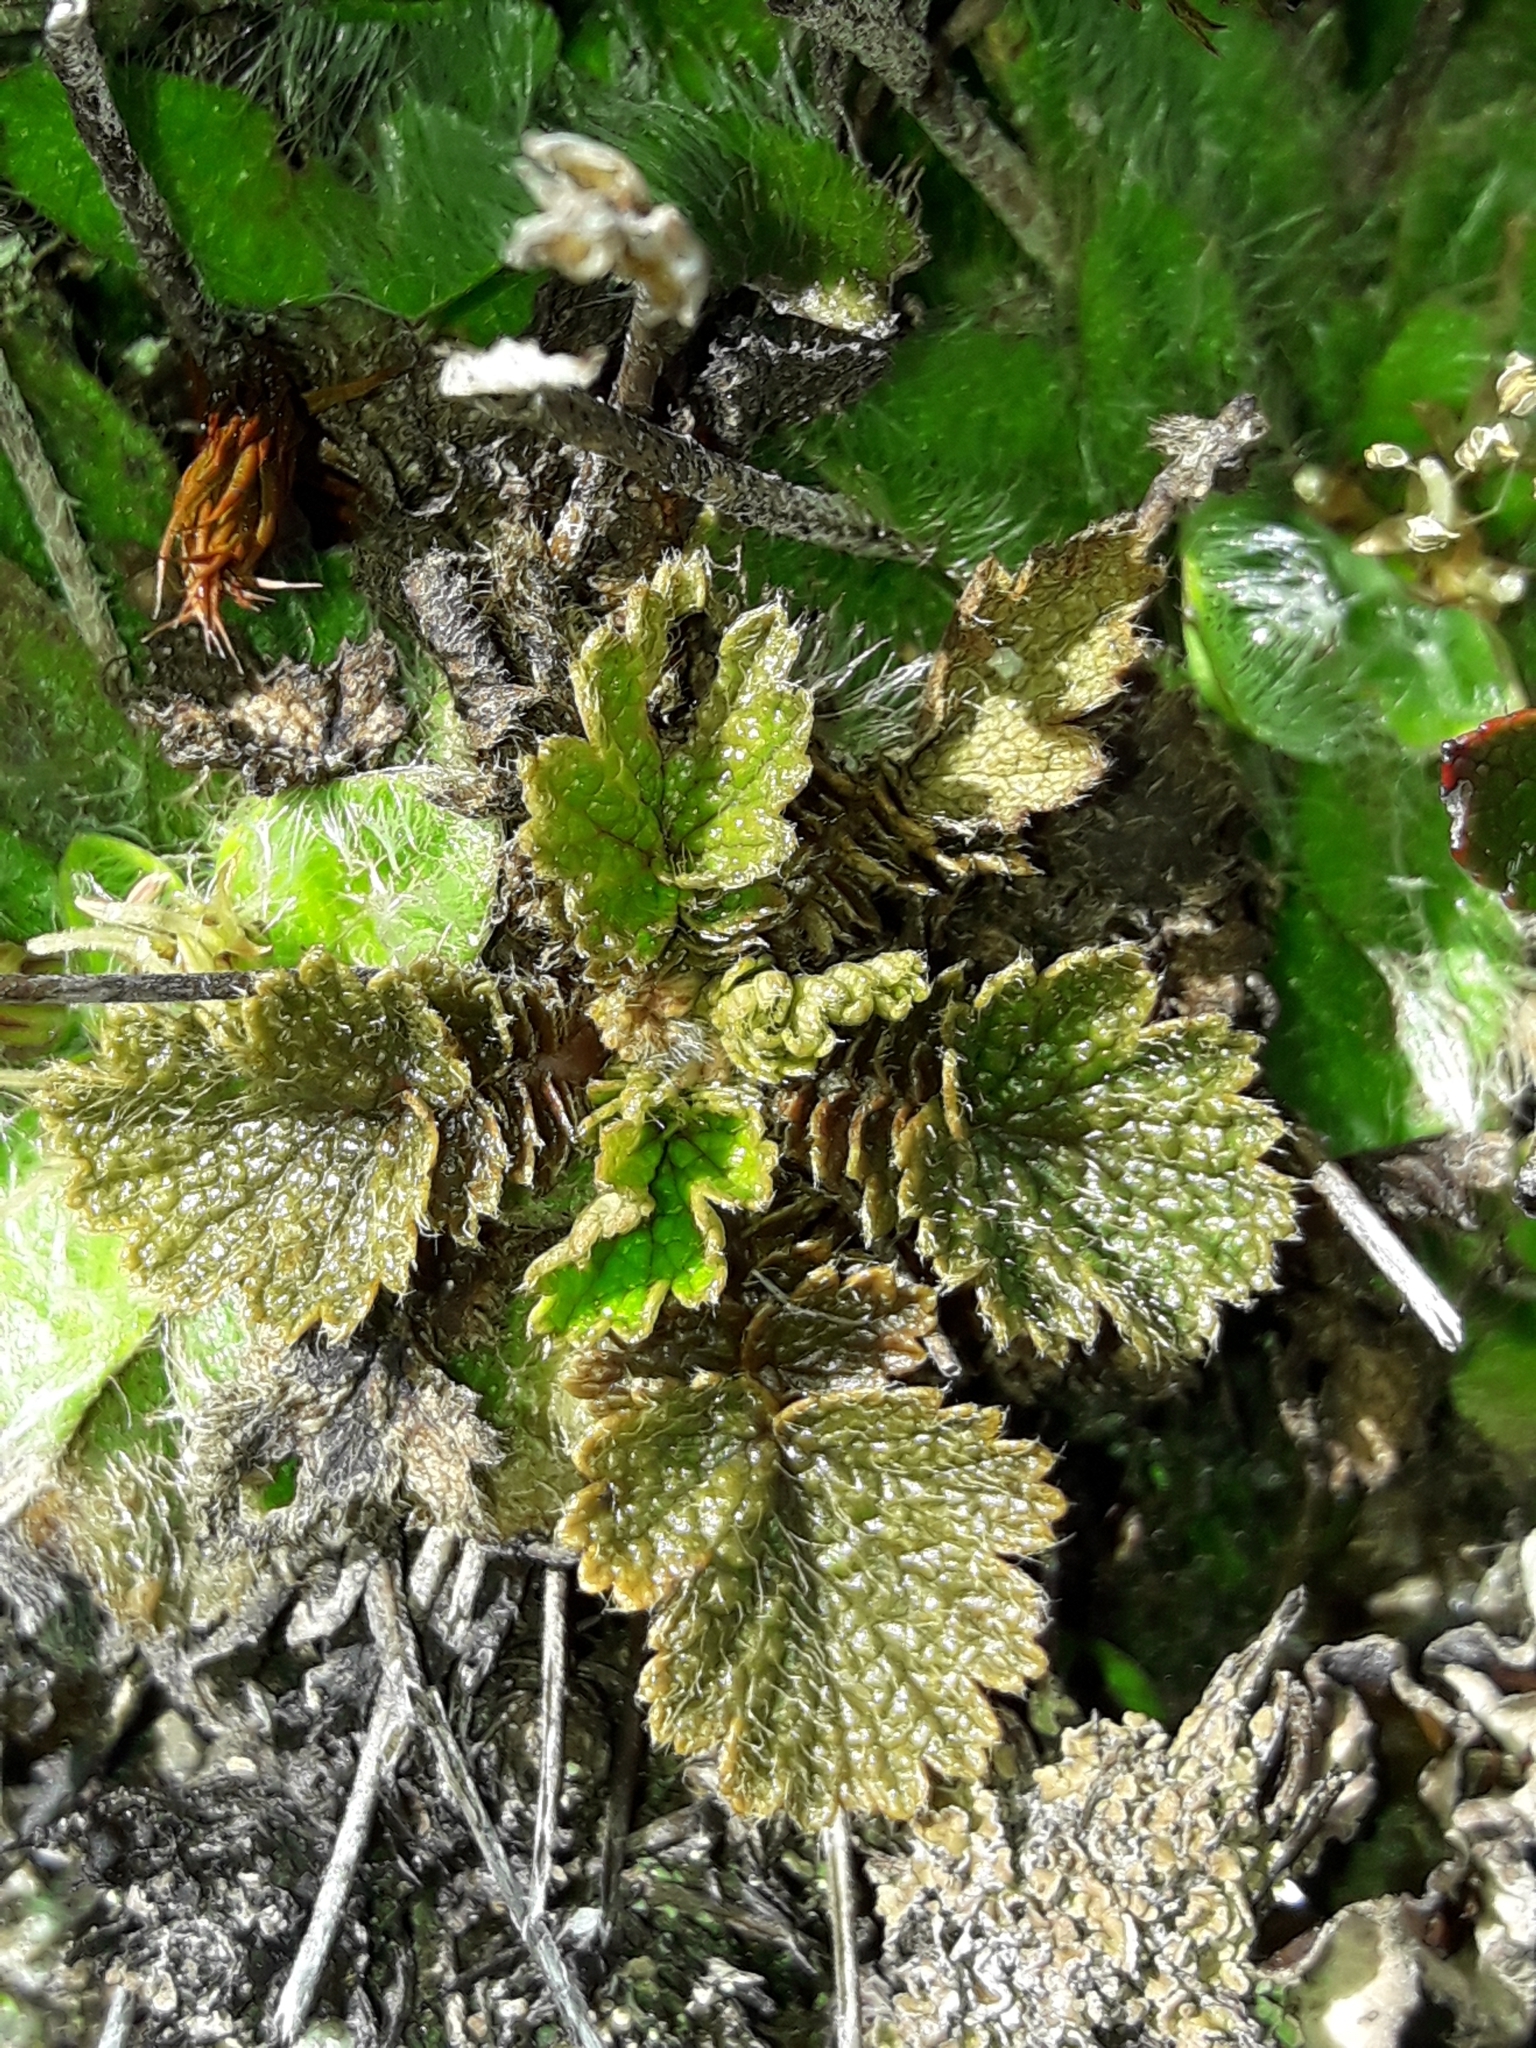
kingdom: Plantae
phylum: Tracheophyta
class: Magnoliopsida
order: Rosales
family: Rosaceae
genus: Geum
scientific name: Geum leiospermum
